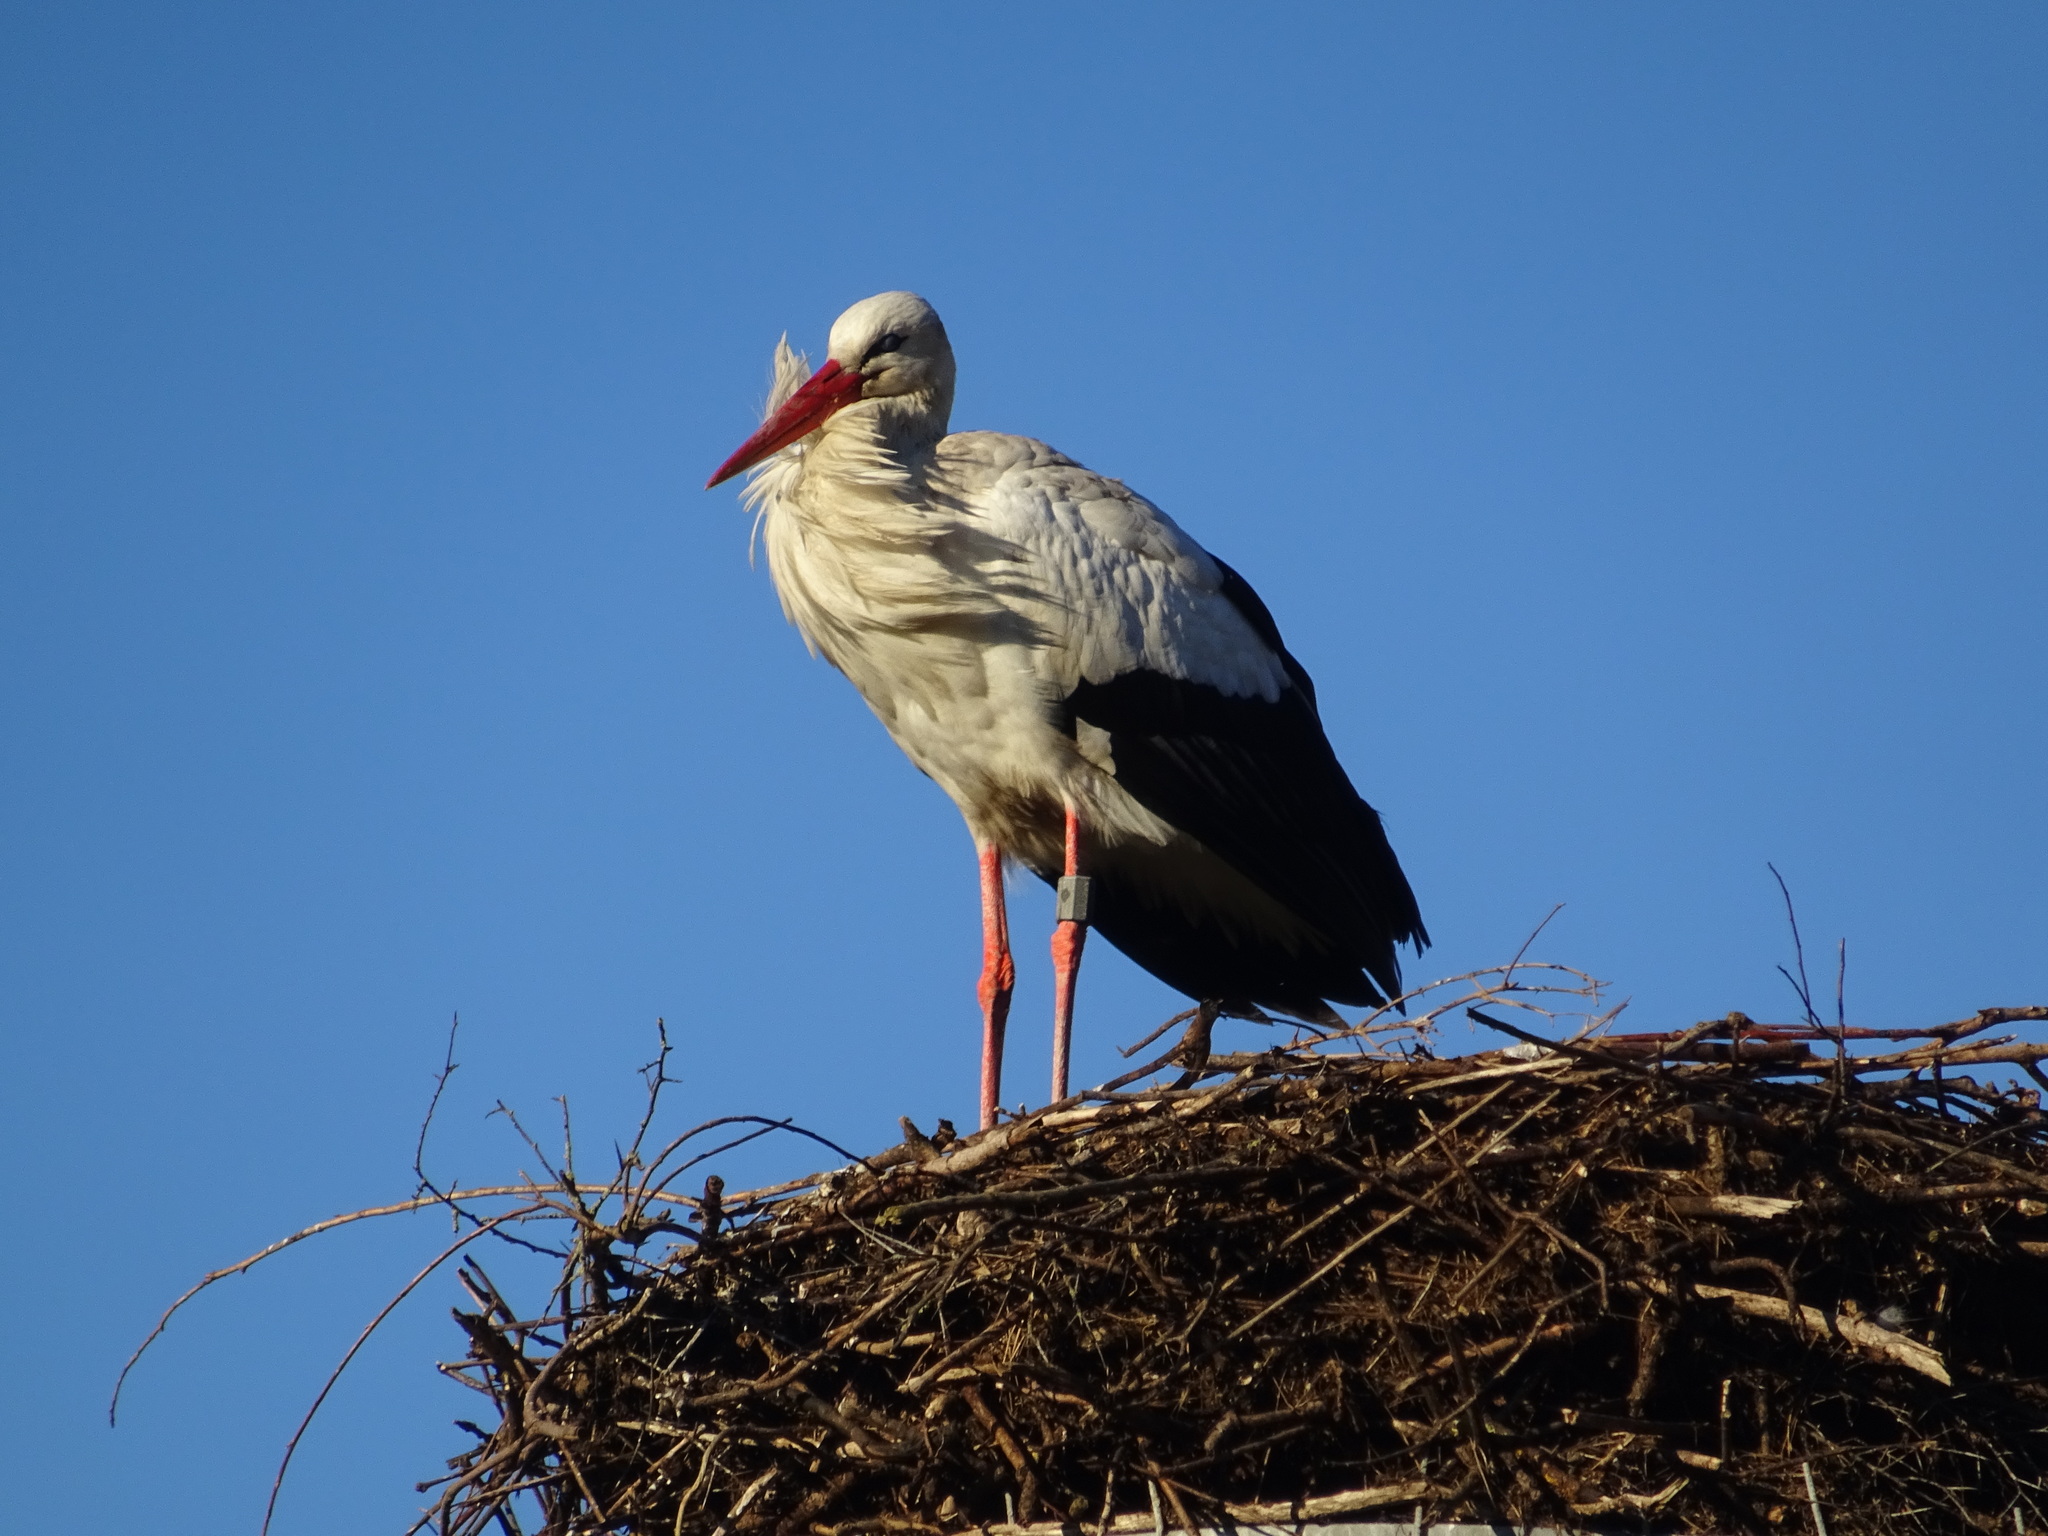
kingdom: Animalia
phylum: Chordata
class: Aves
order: Ciconiiformes
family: Ciconiidae
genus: Ciconia
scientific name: Ciconia ciconia
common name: White stork
